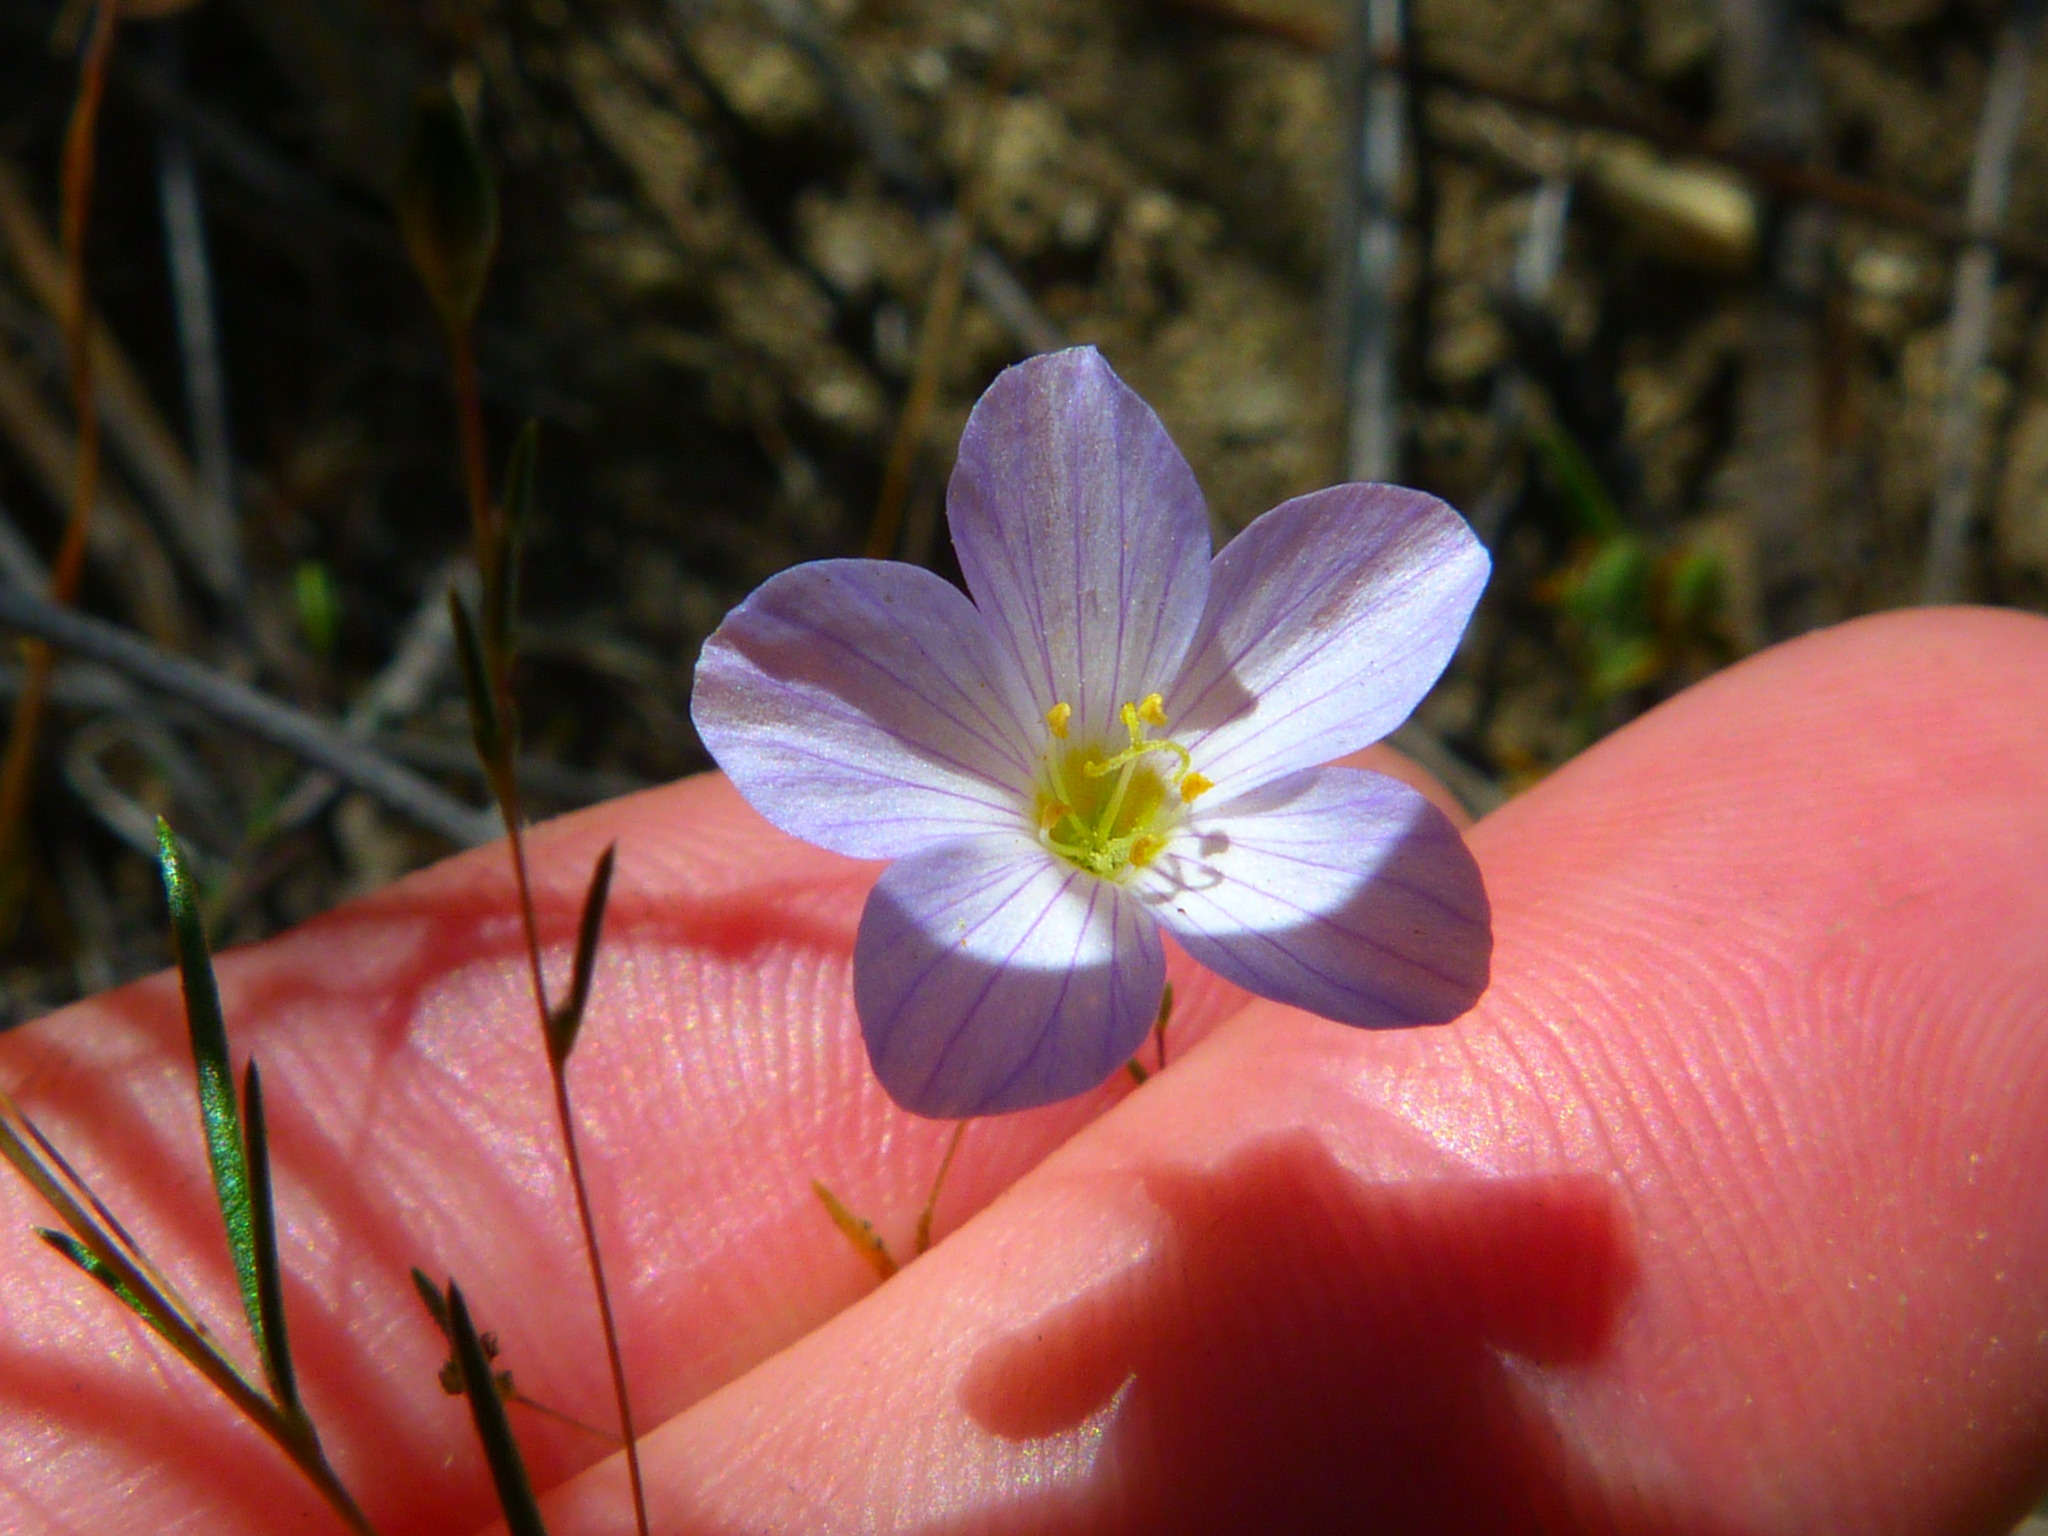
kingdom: Plantae
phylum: Tracheophyta
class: Magnoliopsida
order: Ericales
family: Polemoniaceae
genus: Leptosiphon
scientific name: Leptosiphon liniflorus
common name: Narrowflower flaxflower
